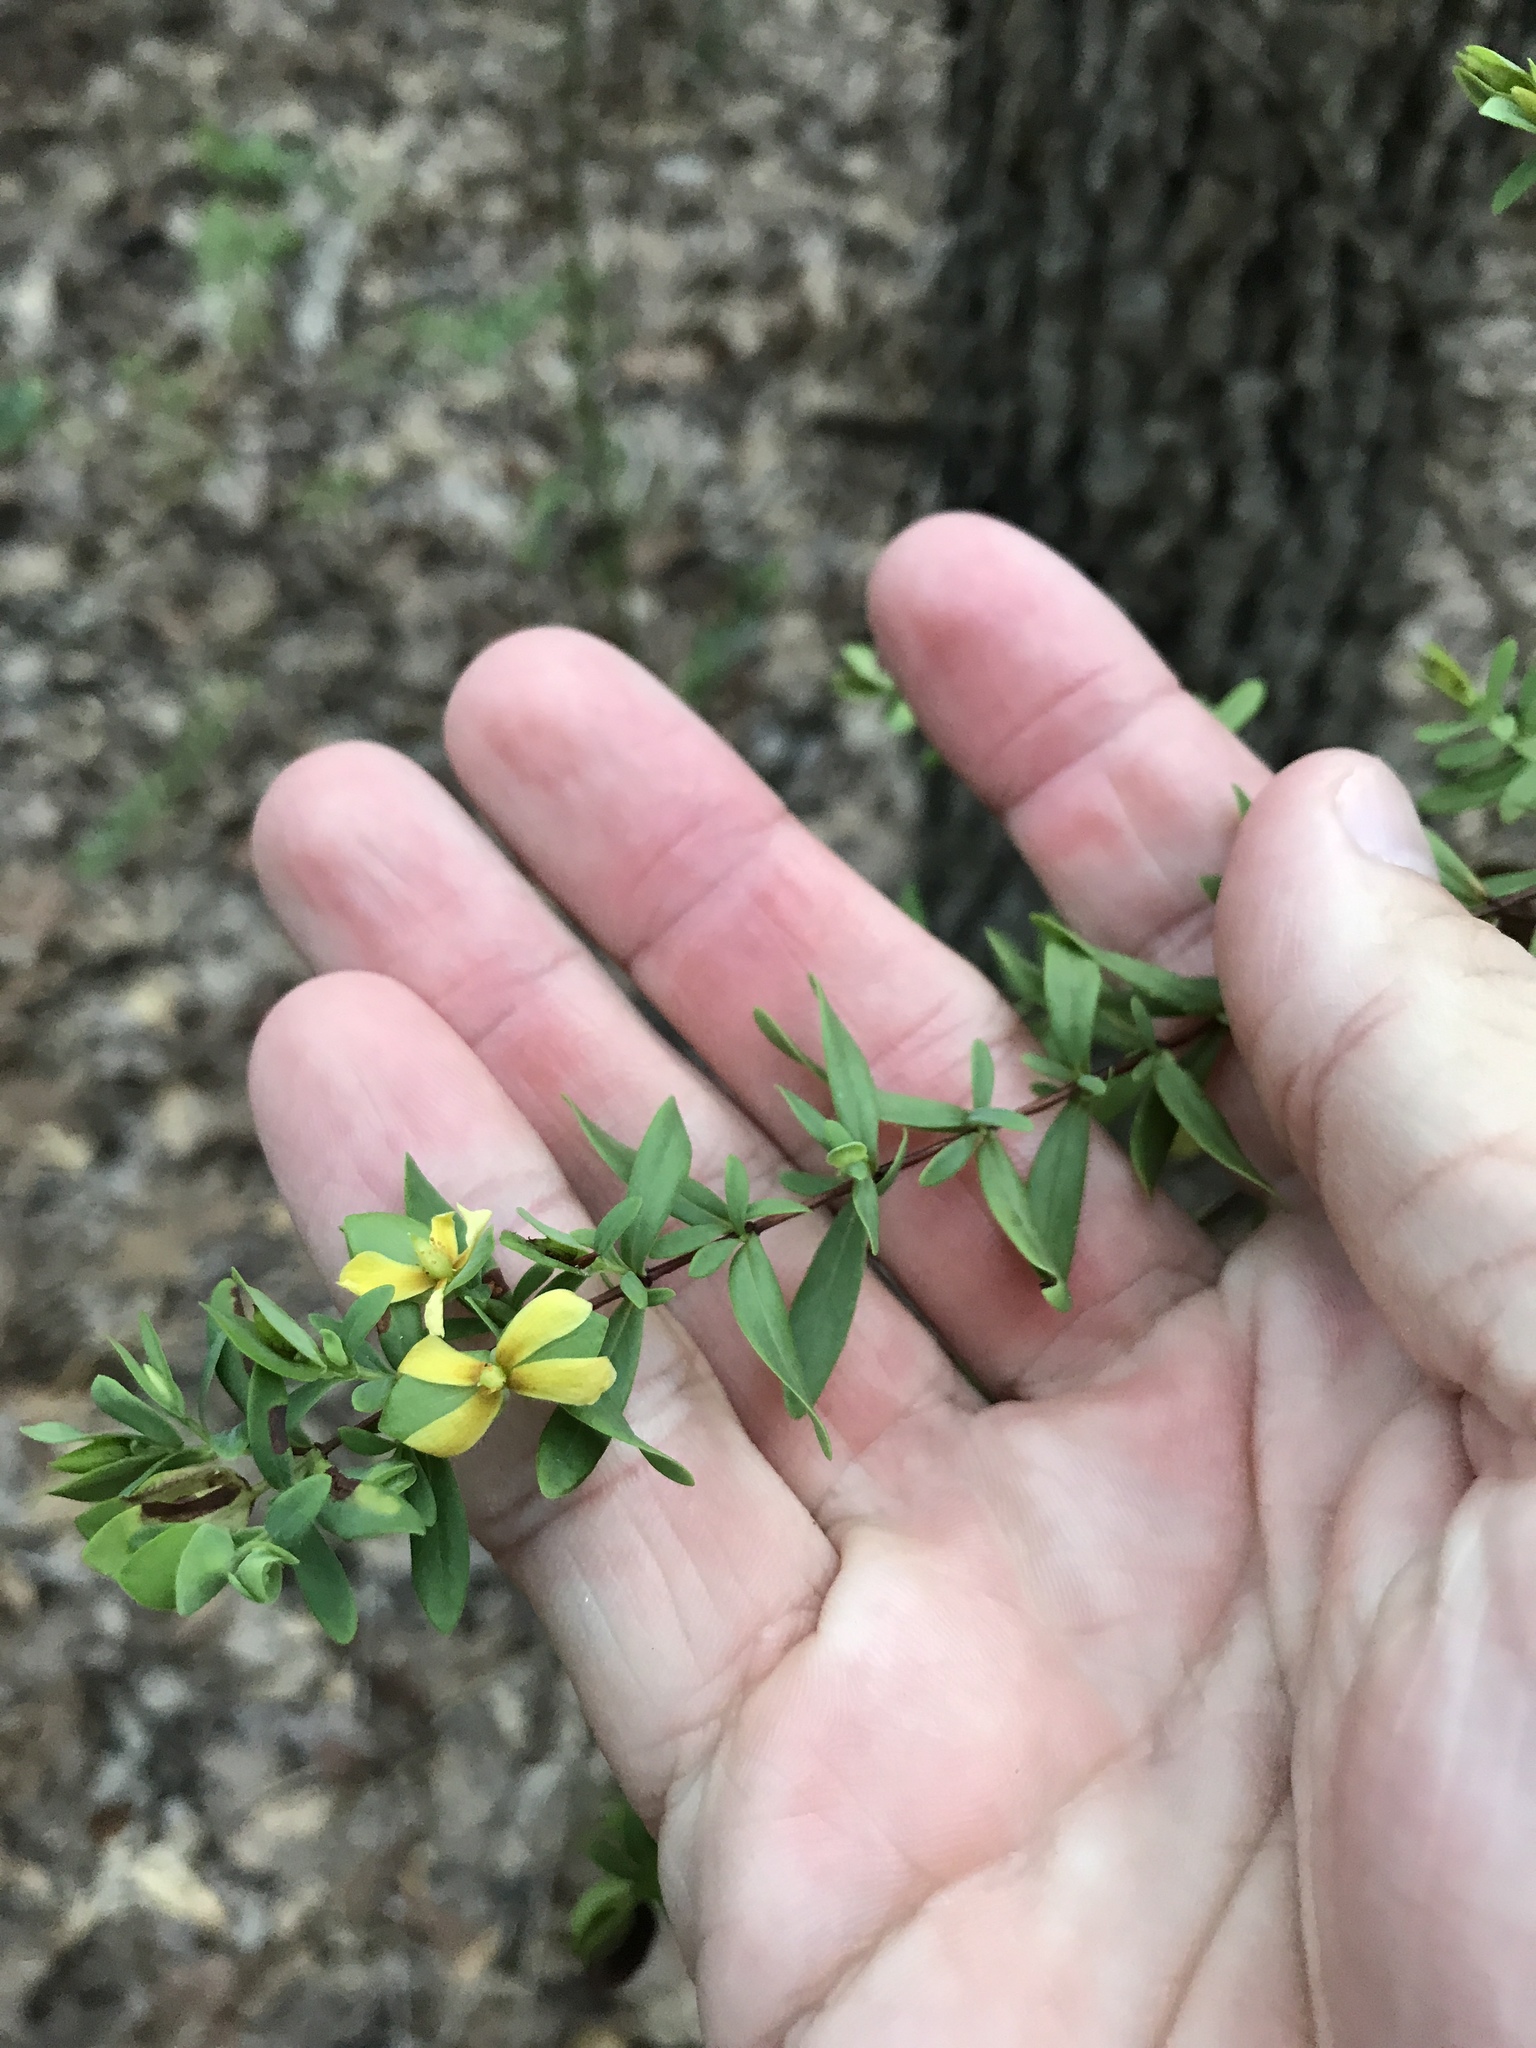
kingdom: Plantae
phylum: Tracheophyta
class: Magnoliopsida
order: Malpighiales
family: Hypericaceae
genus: Hypericum
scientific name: Hypericum hypericoides
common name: St. andrew's cross
